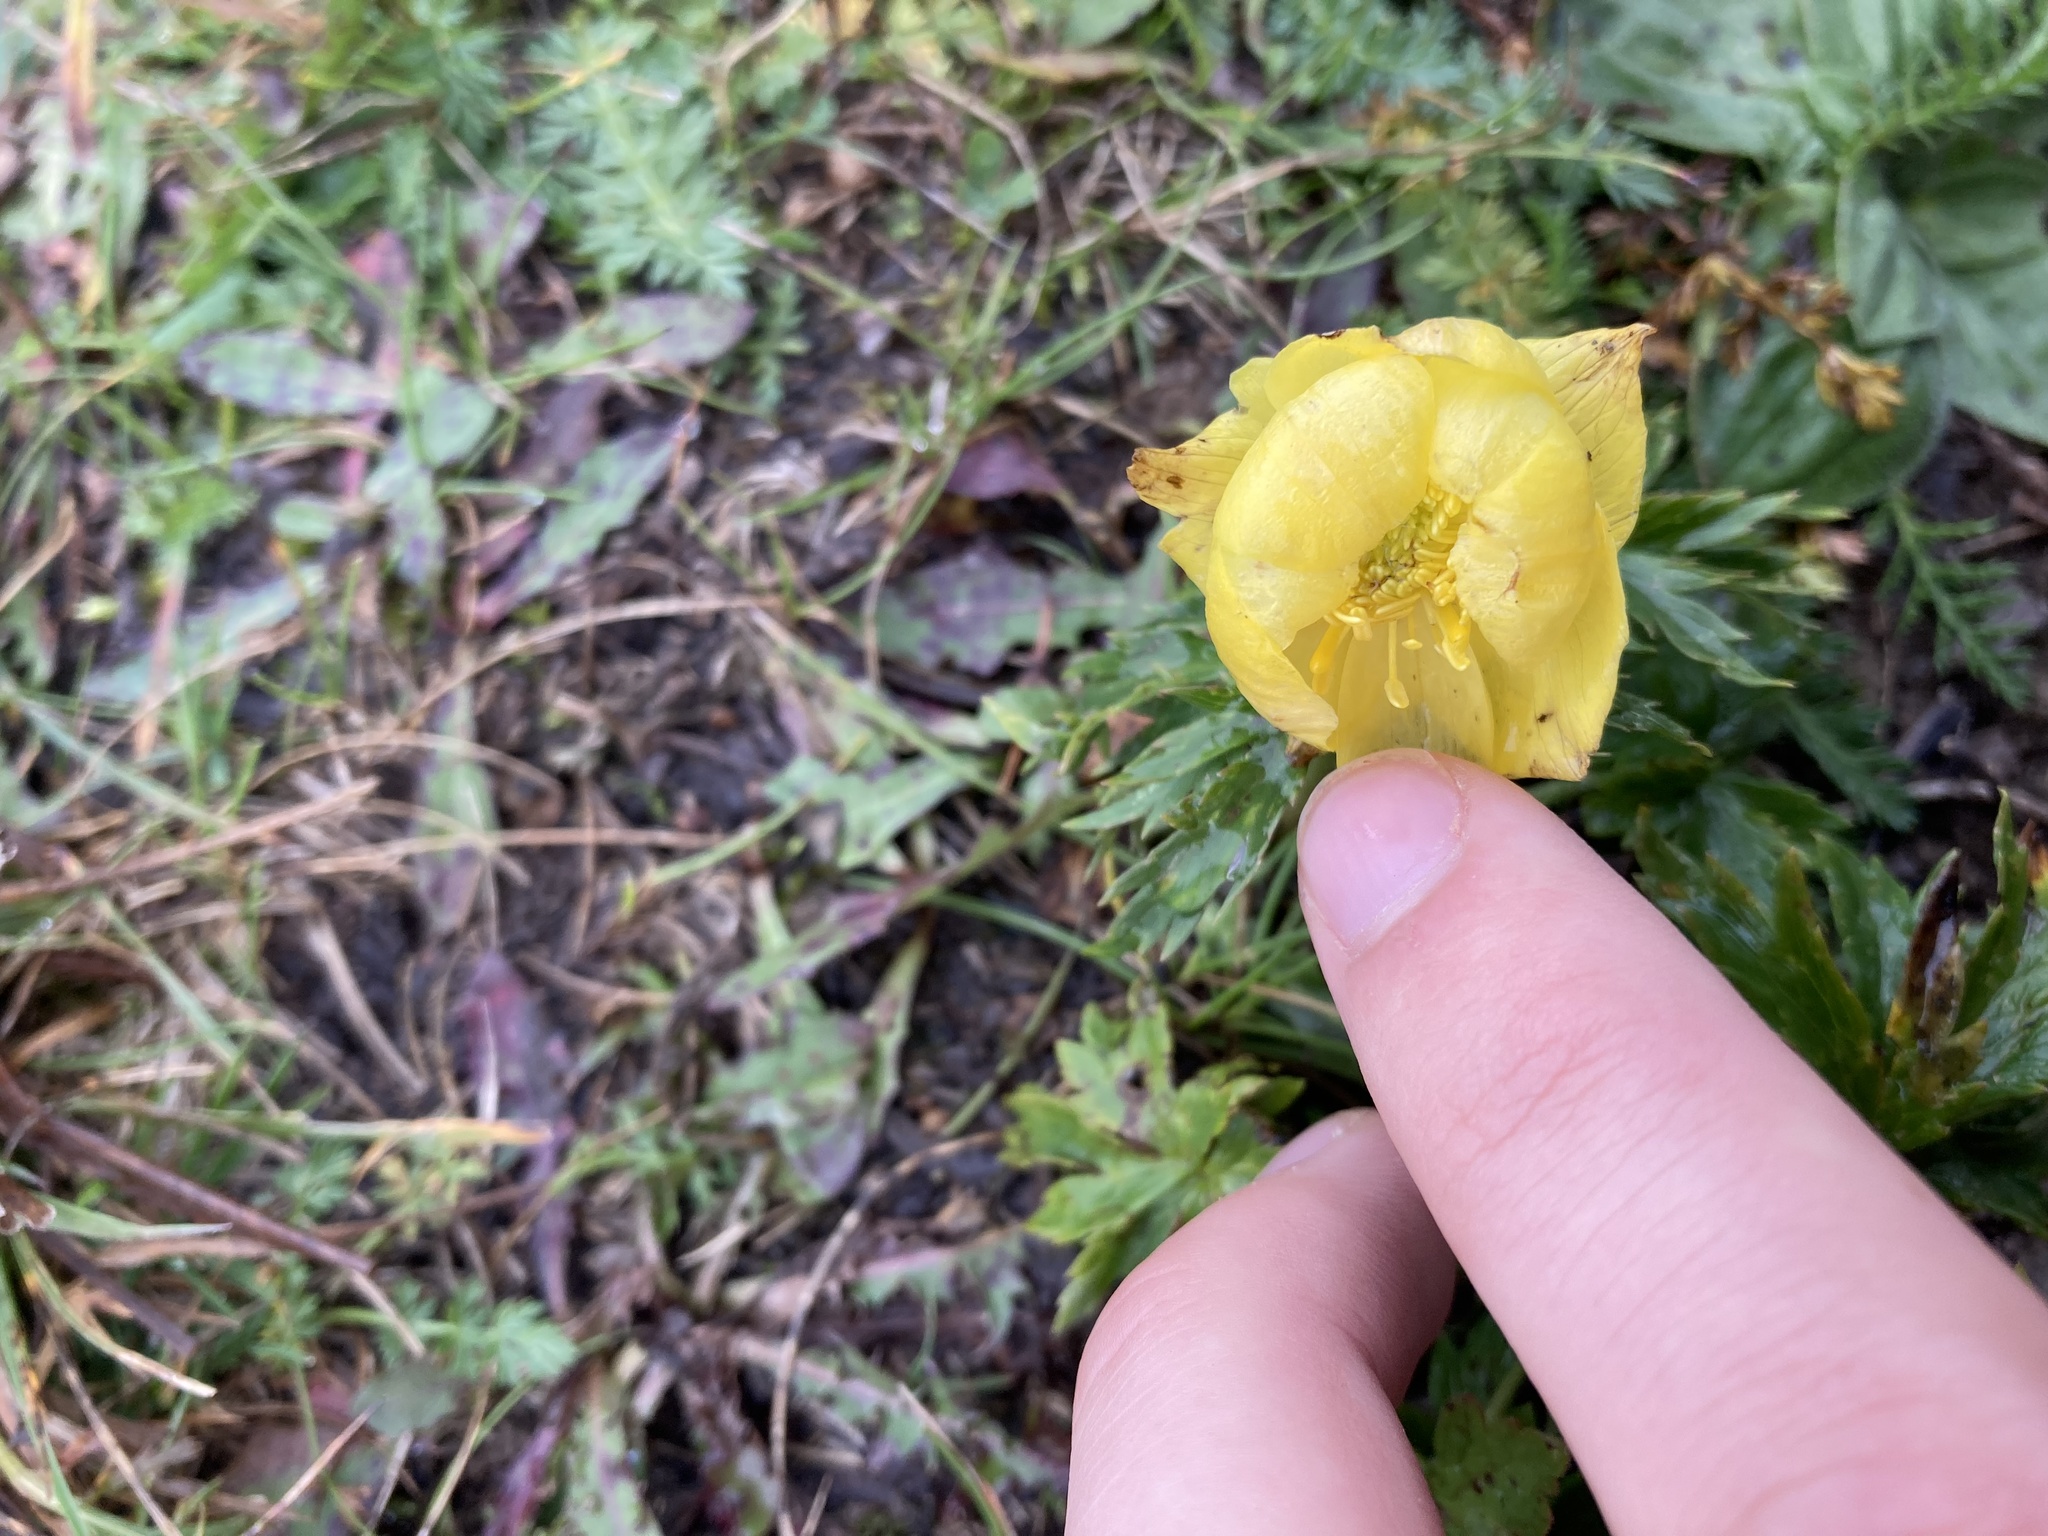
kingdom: Plantae
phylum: Tracheophyta
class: Magnoliopsida
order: Ranunculales
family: Ranunculaceae
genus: Trollius
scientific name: Trollius europaeus
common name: European globeflower
